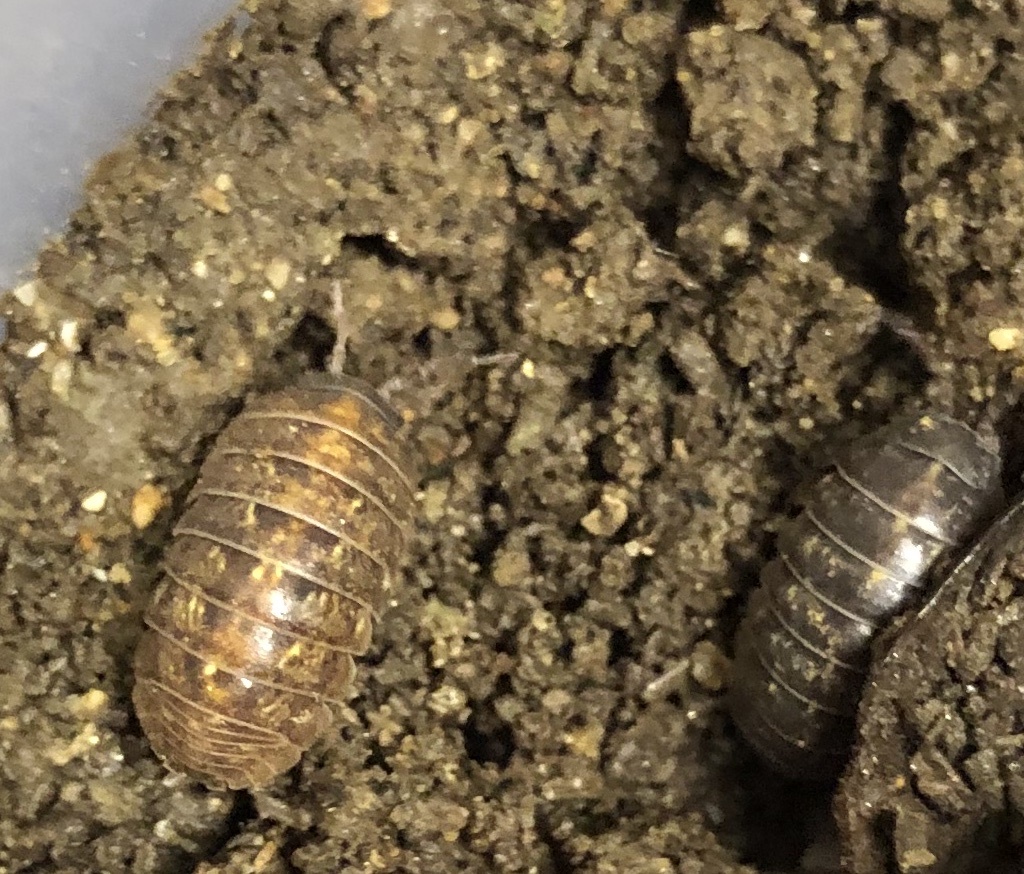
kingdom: Animalia
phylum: Arthropoda
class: Malacostraca
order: Isopoda
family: Armadillidiidae
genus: Armadillidium
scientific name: Armadillidium vulgare
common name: Common pill woodlouse
